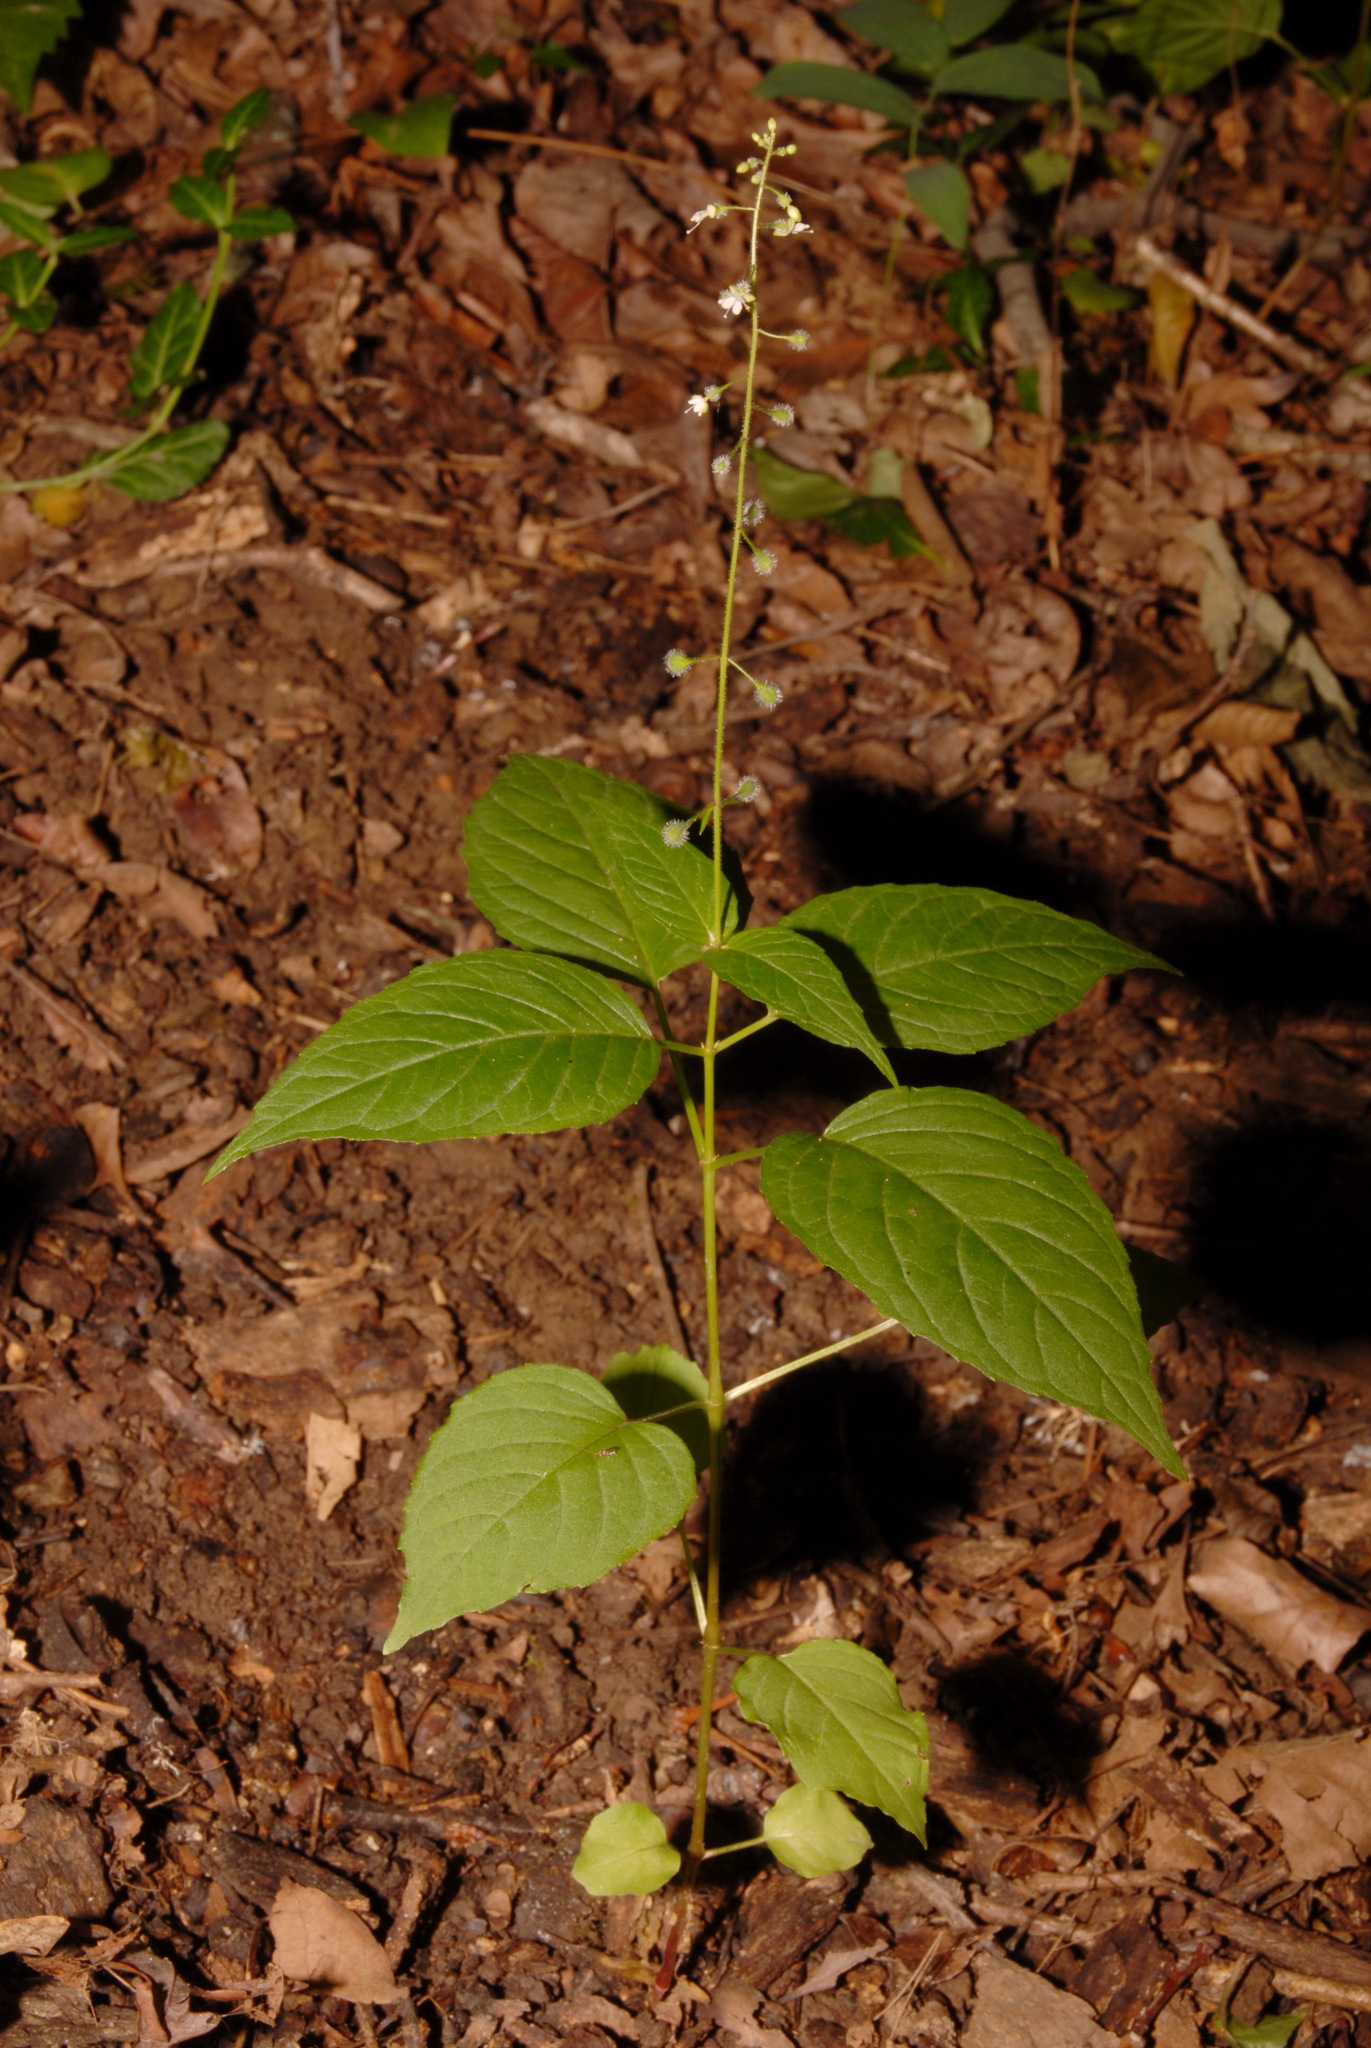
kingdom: Plantae
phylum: Tracheophyta
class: Magnoliopsida
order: Myrtales
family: Onagraceae
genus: Circaea
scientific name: Circaea canadensis
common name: Broad-leaved enchanter's nightshade
